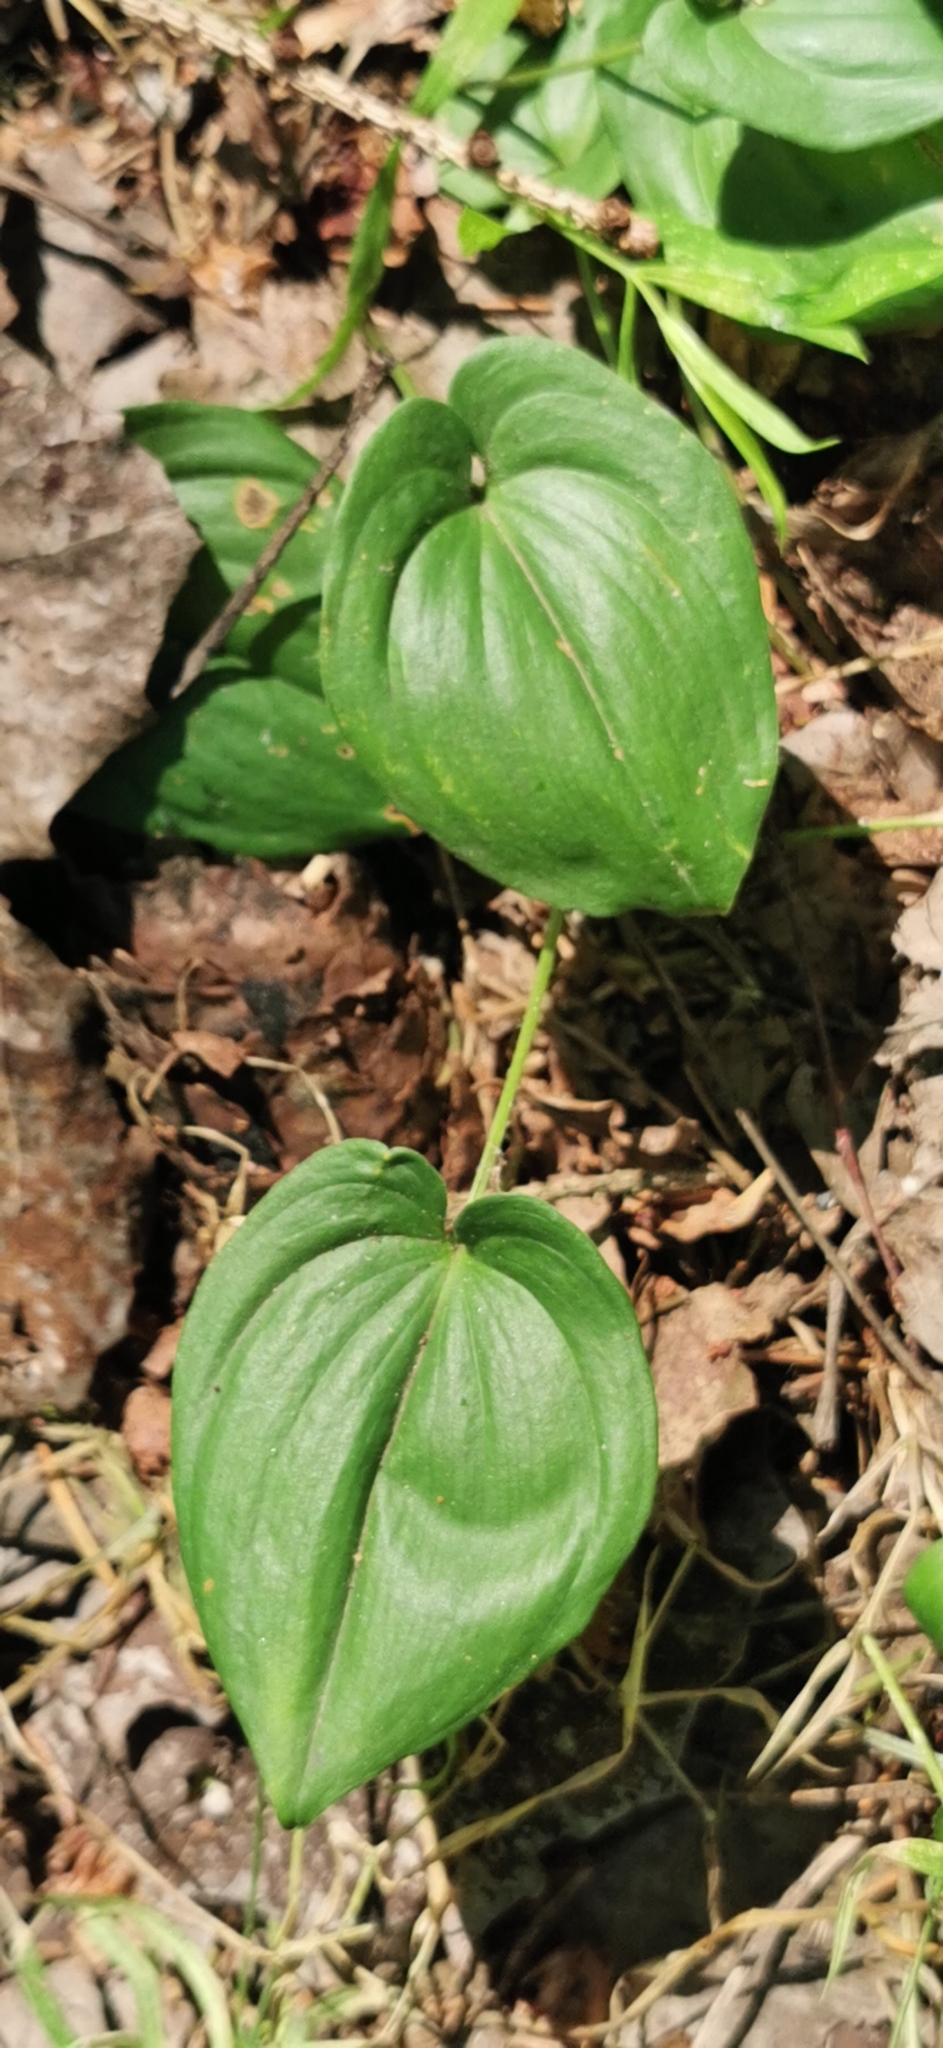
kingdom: Plantae
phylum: Tracheophyta
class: Liliopsida
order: Asparagales
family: Asparagaceae
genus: Maianthemum
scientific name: Maianthemum bifolium
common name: May lily
